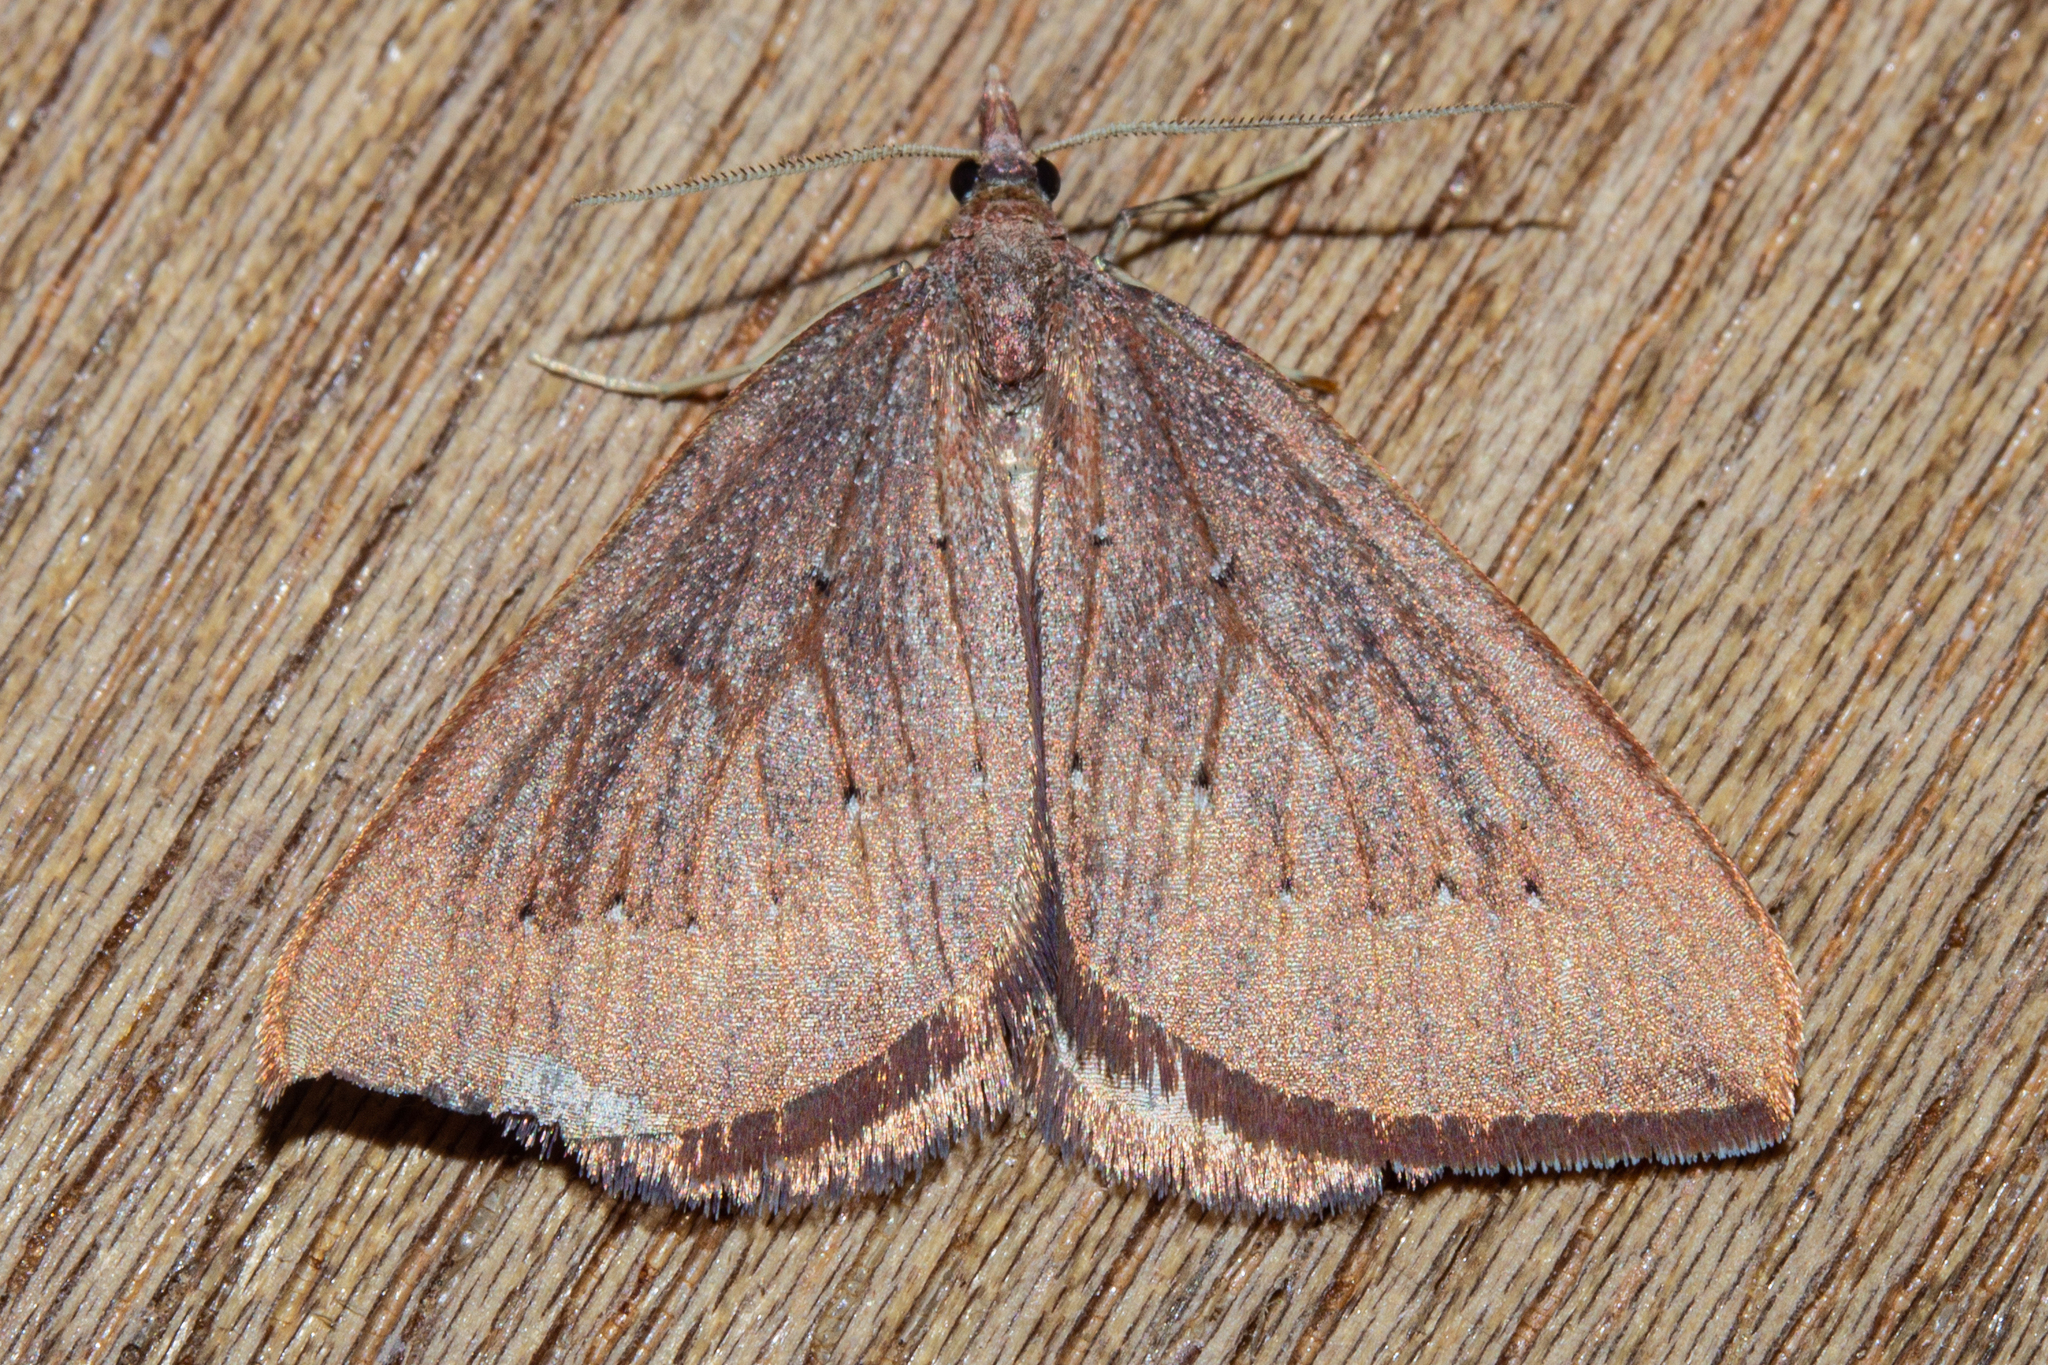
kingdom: Animalia
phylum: Arthropoda
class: Insecta
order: Lepidoptera
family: Geometridae
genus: Xanthorhoe
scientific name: Xanthorhoe occulta
